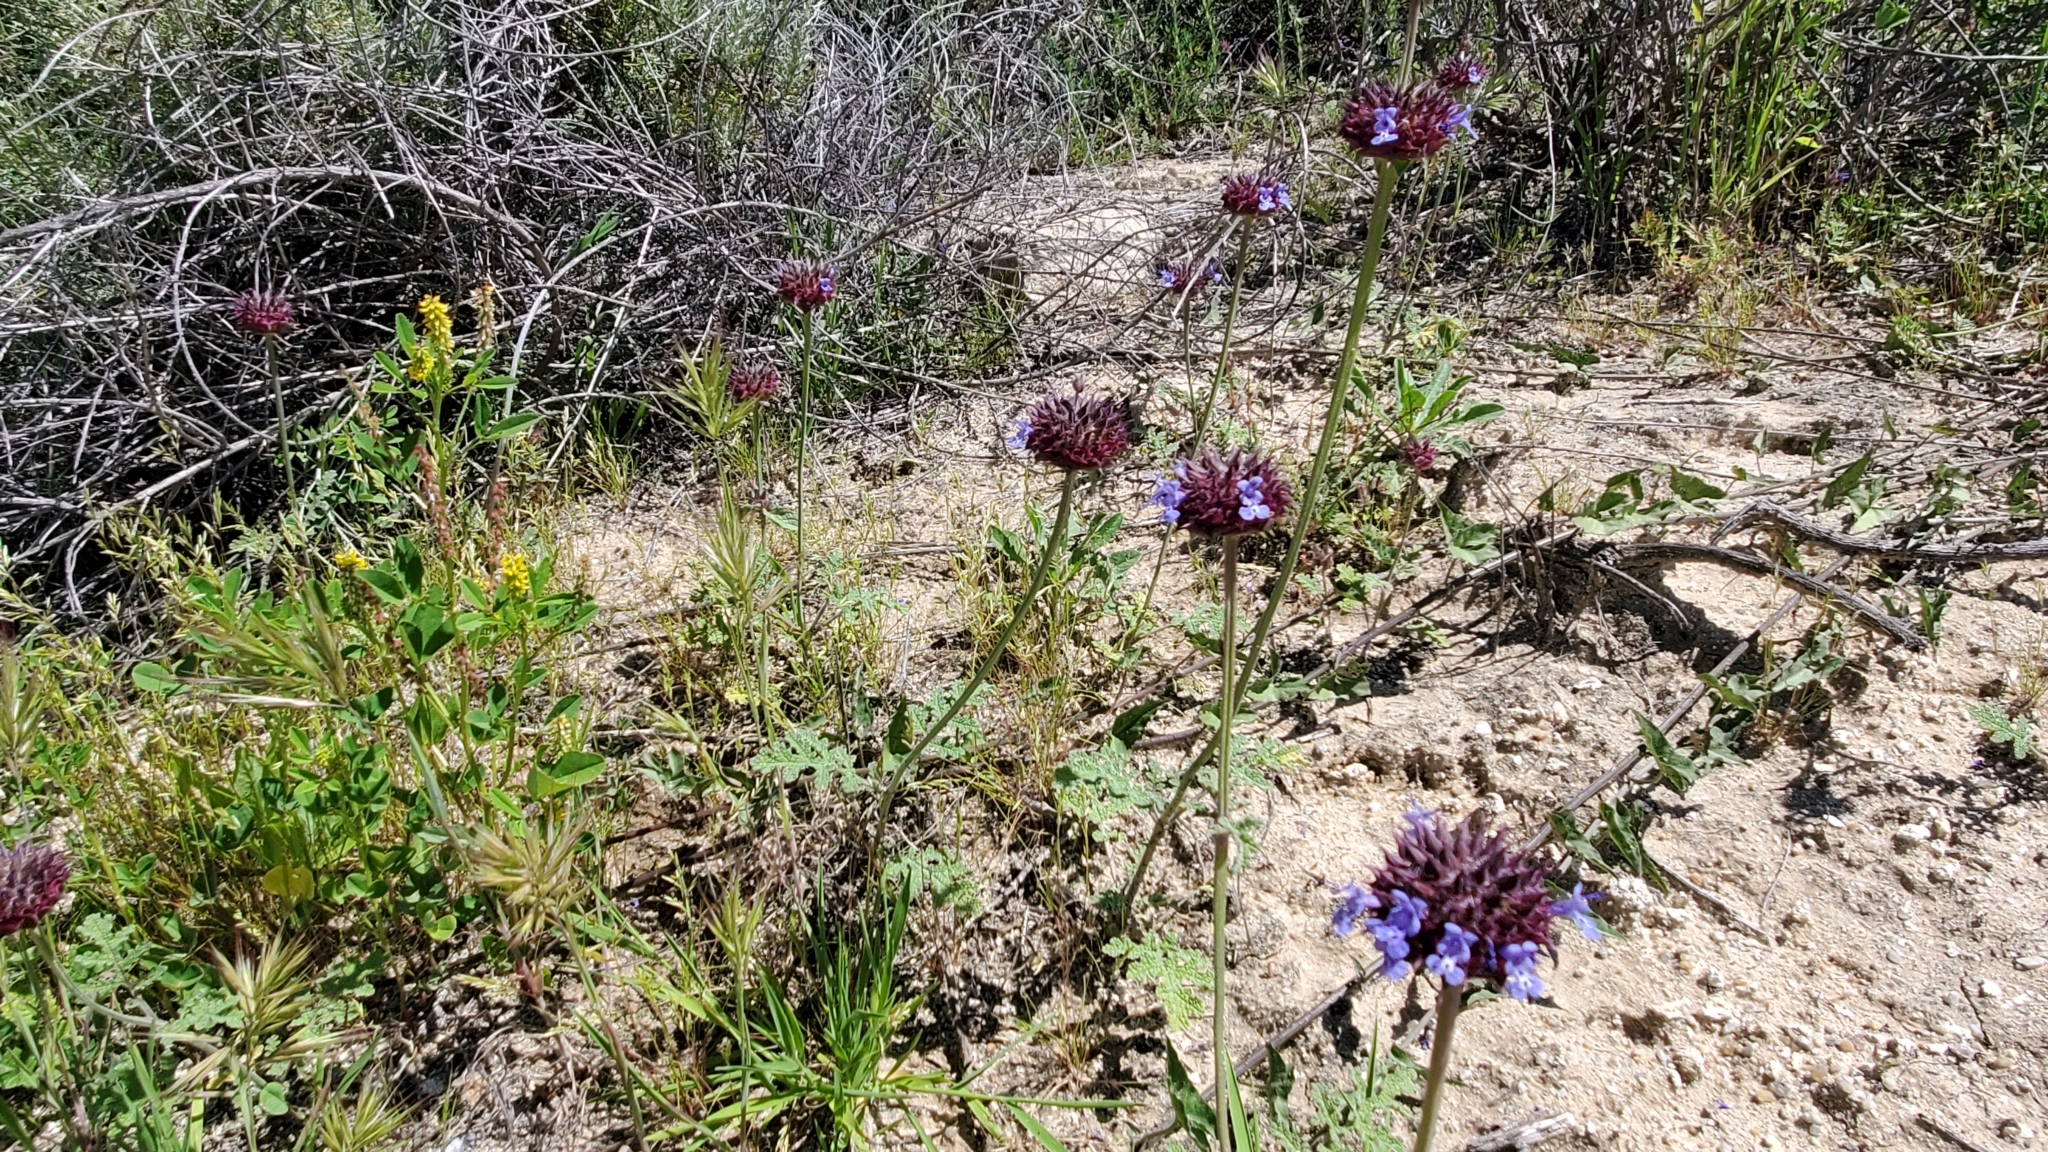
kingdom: Plantae
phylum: Tracheophyta
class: Magnoliopsida
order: Lamiales
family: Lamiaceae
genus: Salvia
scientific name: Salvia columbariae
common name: Chia
